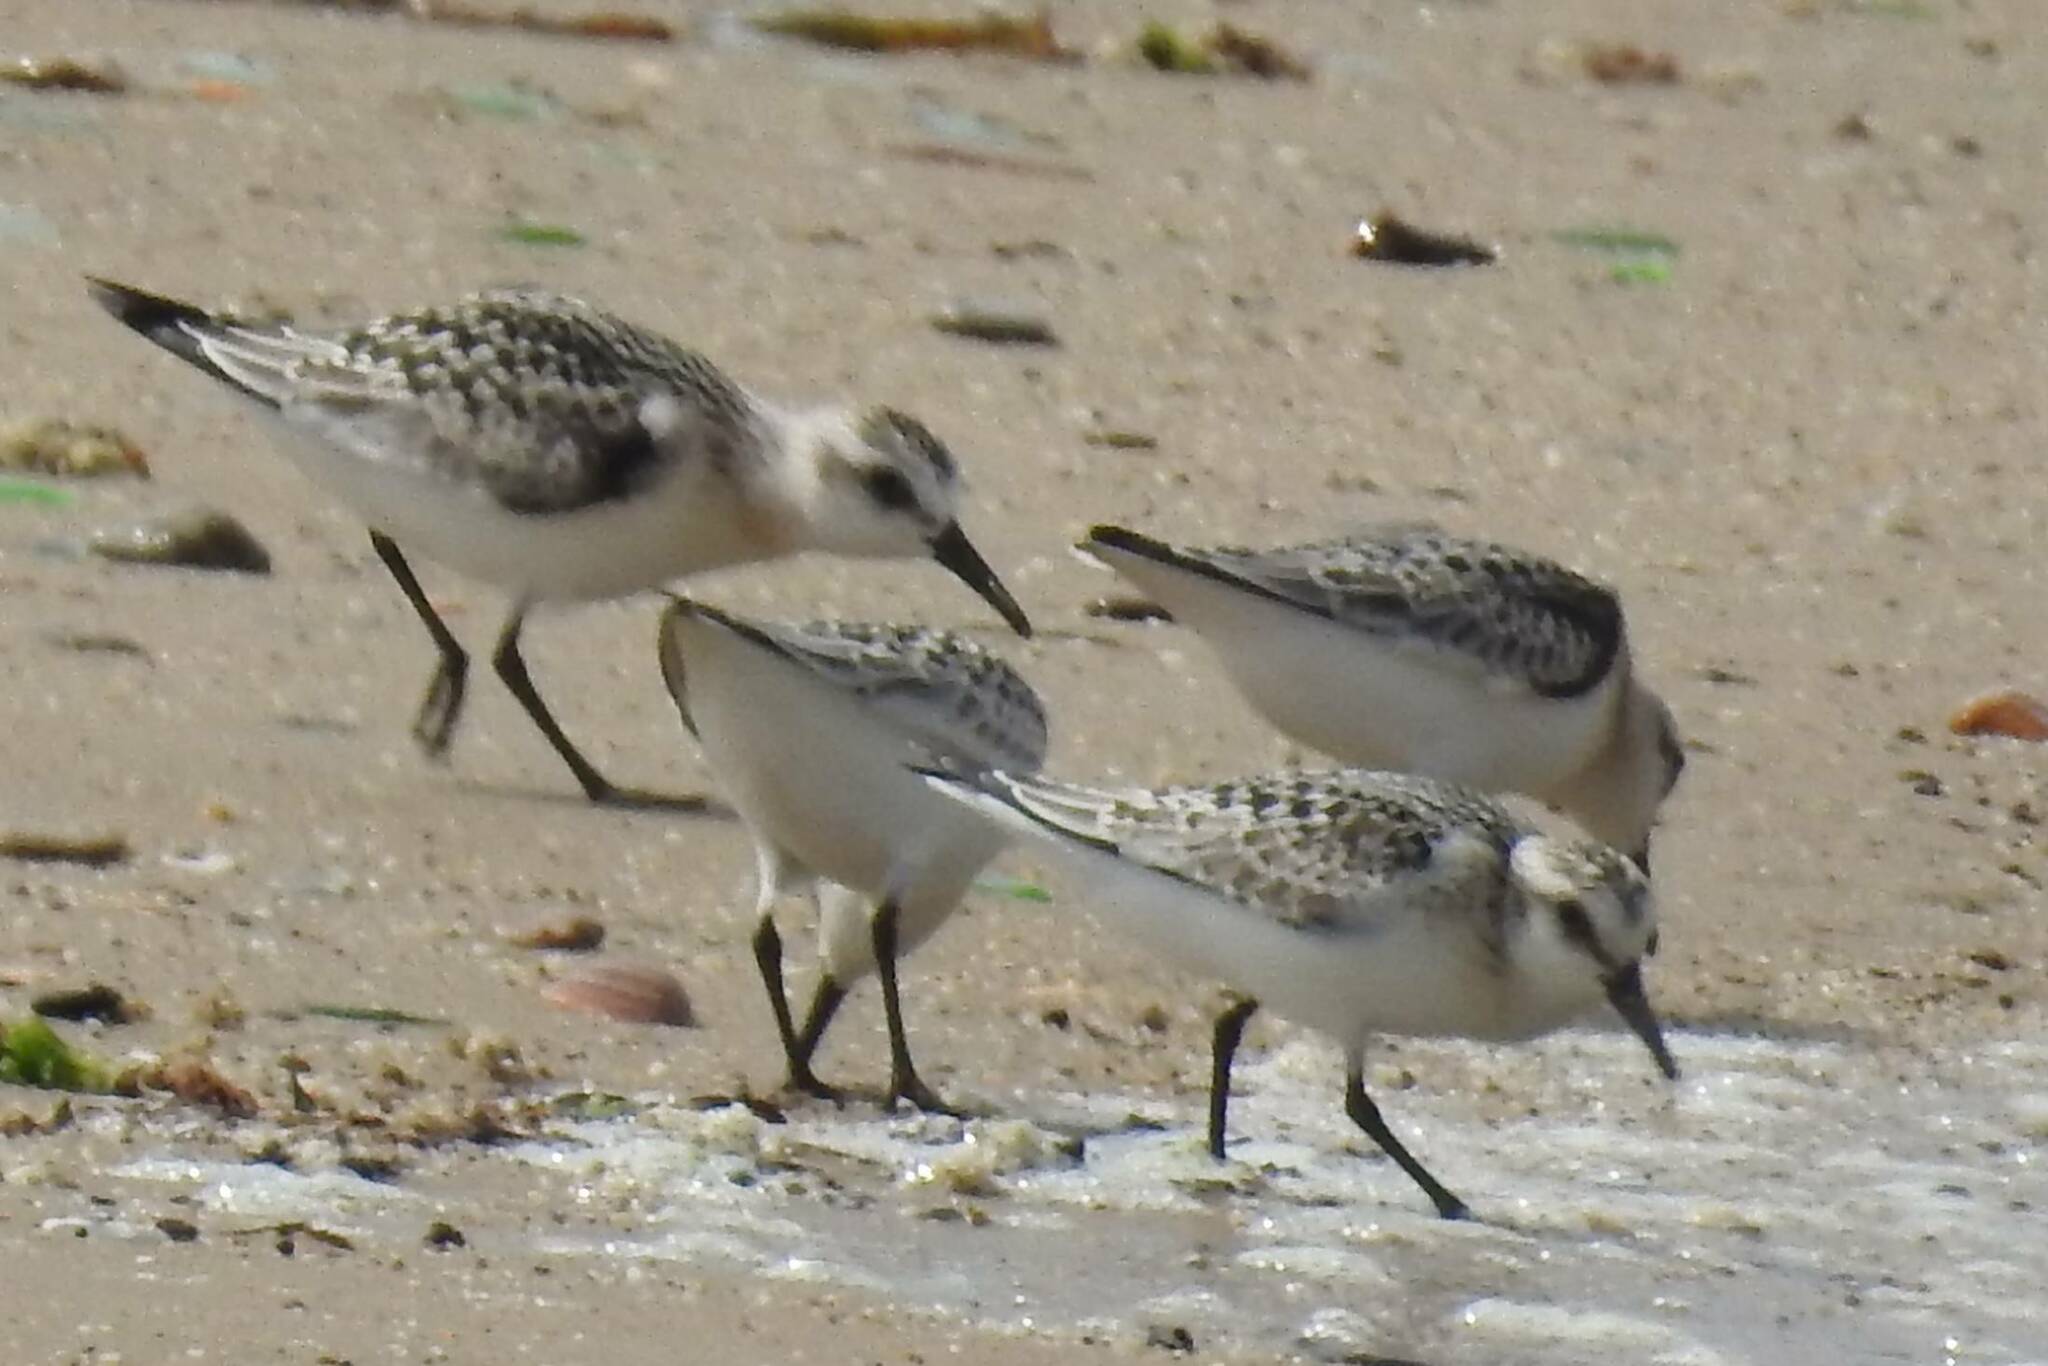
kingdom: Animalia
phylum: Chordata
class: Aves
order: Charadriiformes
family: Scolopacidae
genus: Calidris
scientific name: Calidris alba
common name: Sanderling
